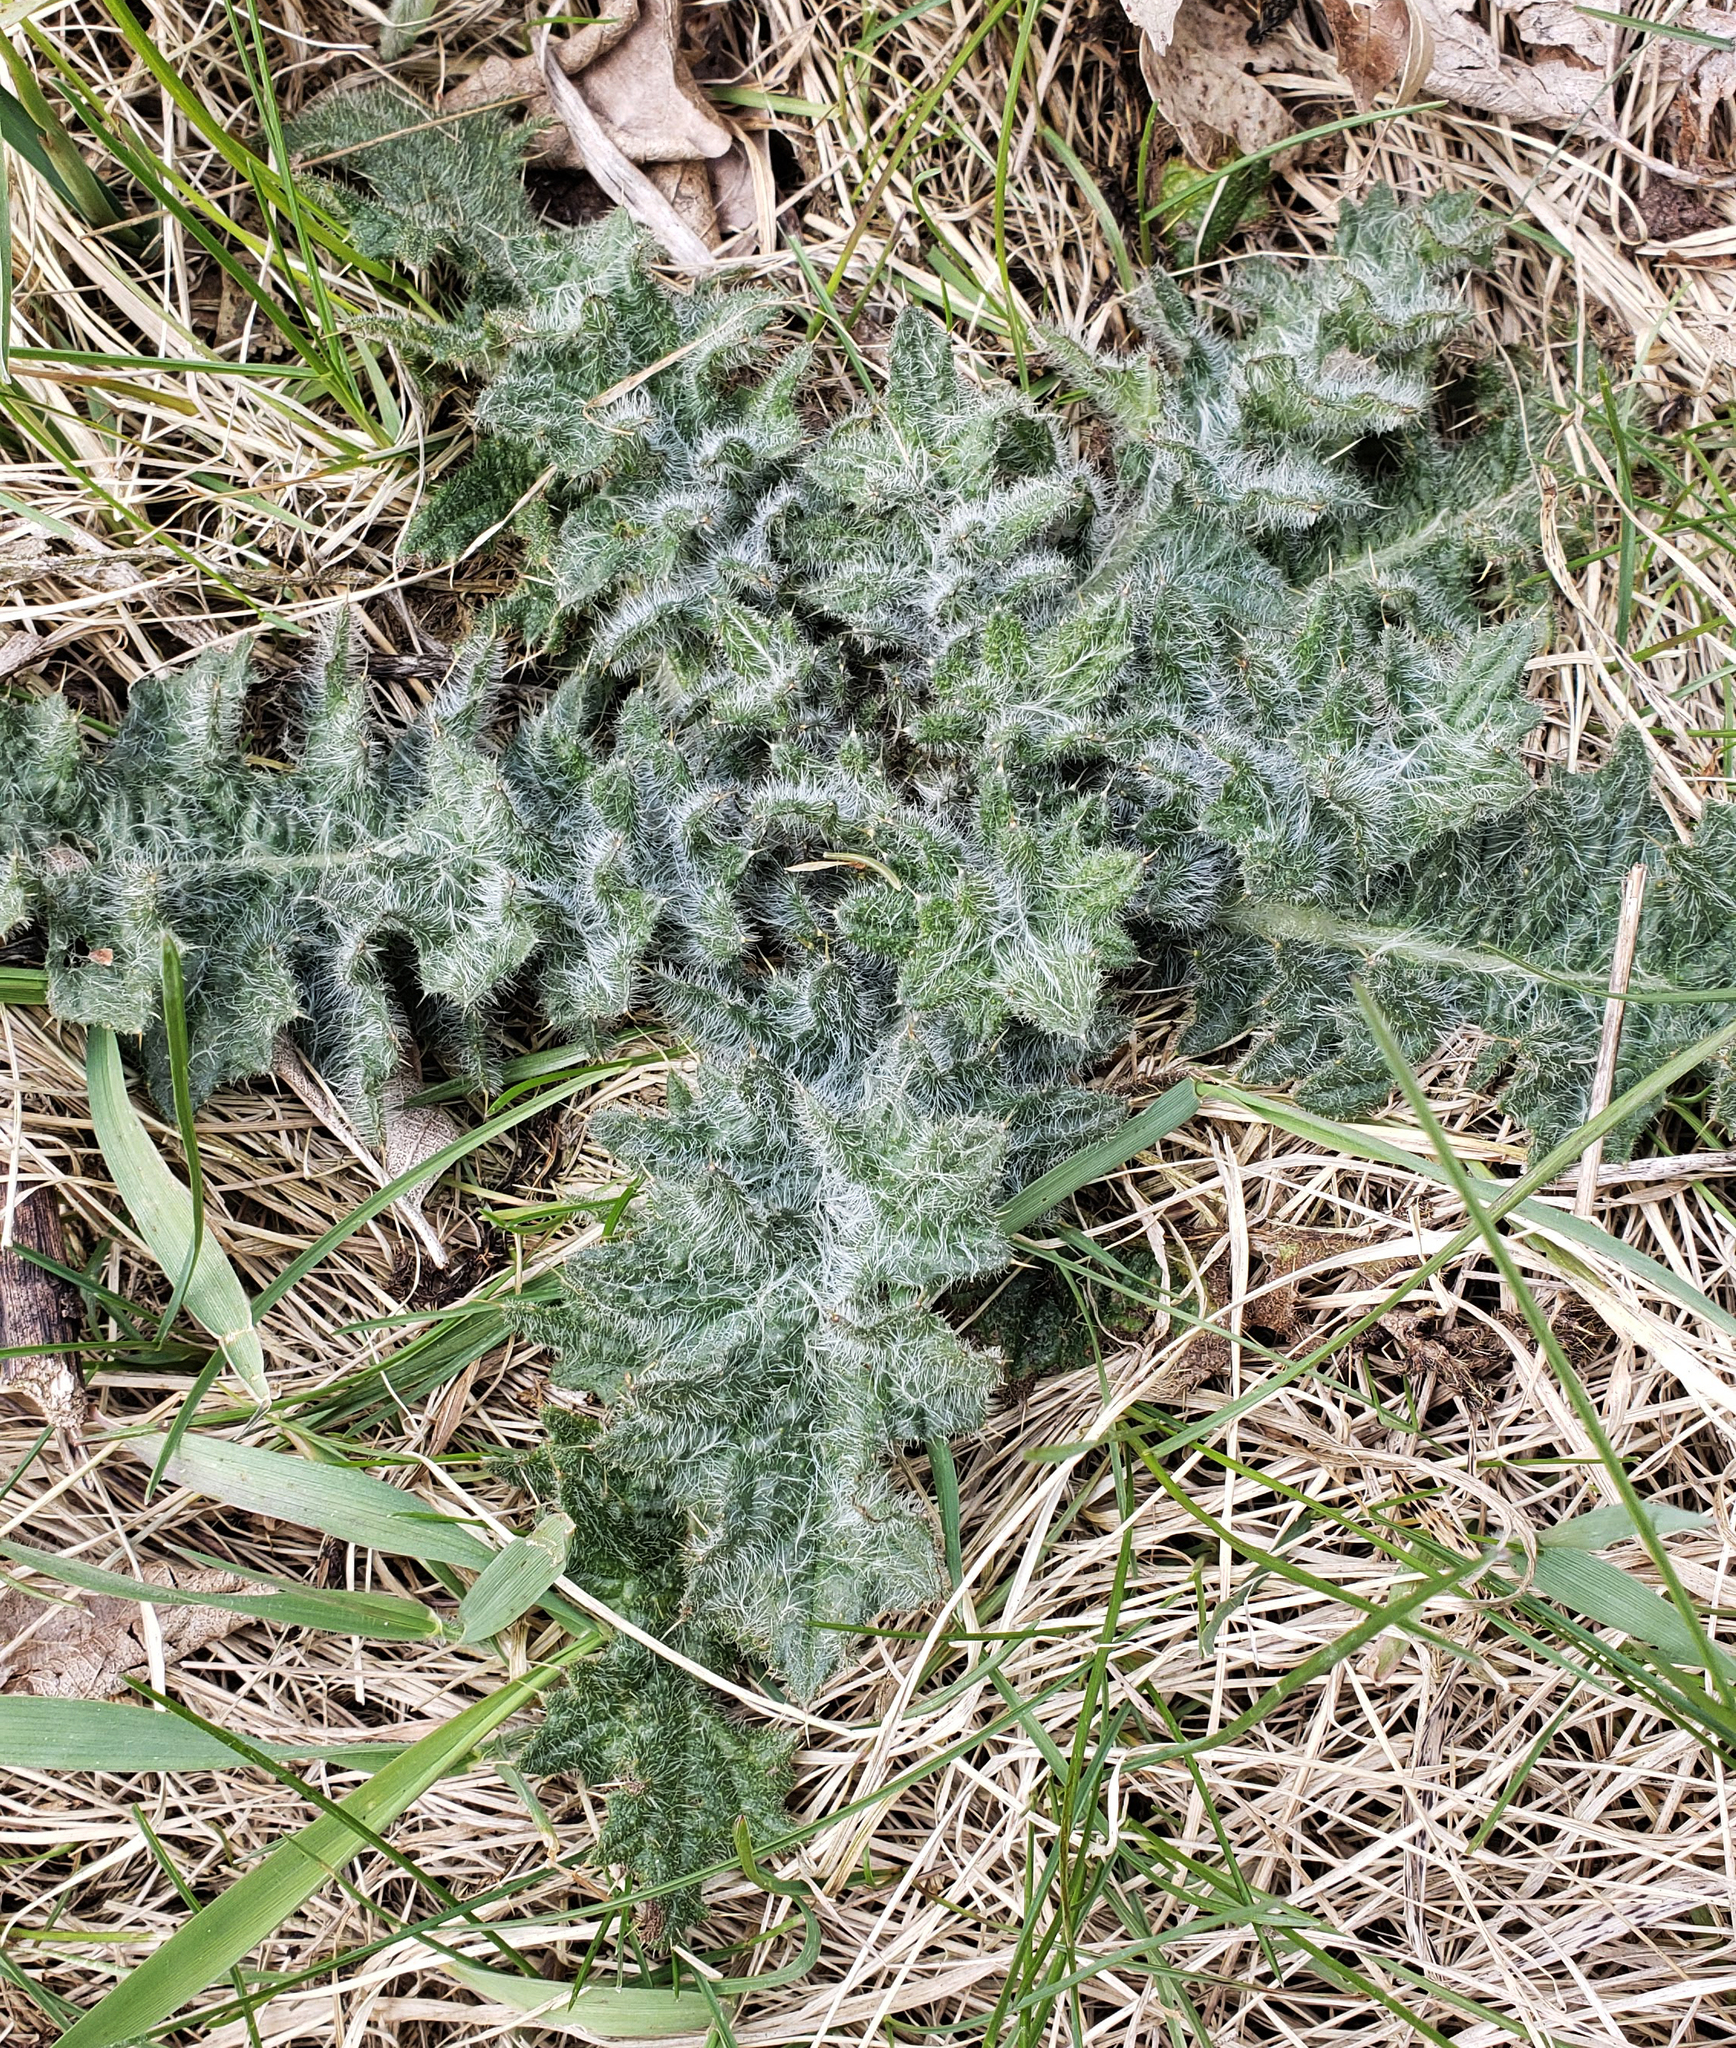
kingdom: Plantae
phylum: Tracheophyta
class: Magnoliopsida
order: Asterales
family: Asteraceae
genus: Cirsium
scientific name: Cirsium vulgare
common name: Bull thistle
